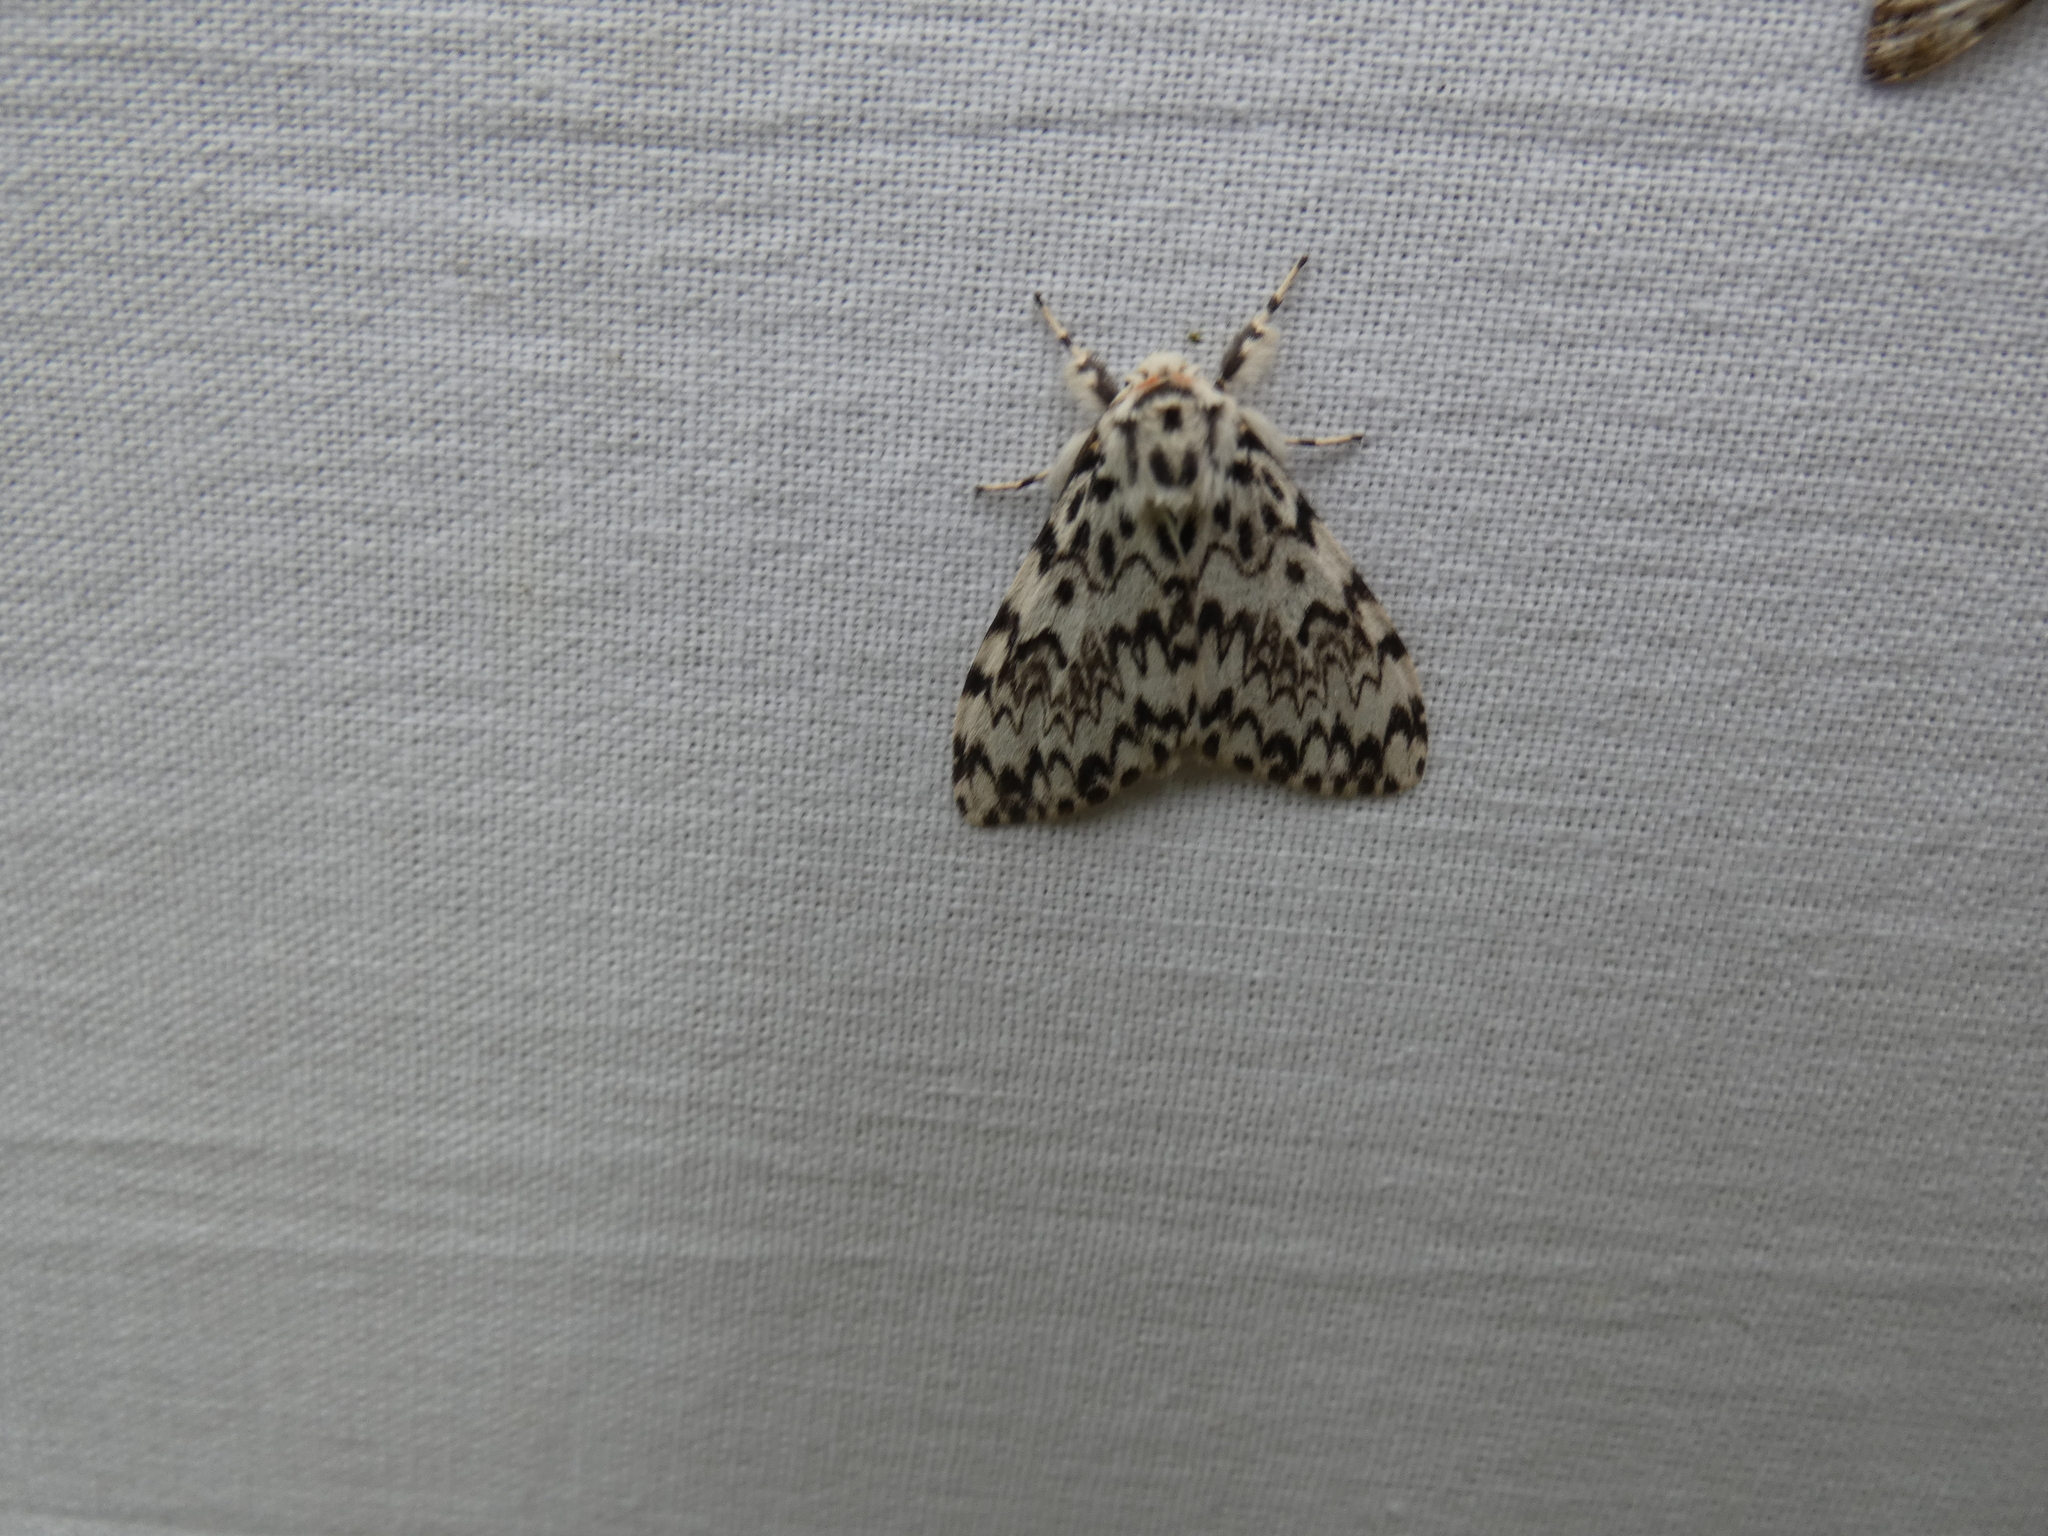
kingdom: Animalia
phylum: Arthropoda
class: Insecta
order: Lepidoptera
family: Erebidae
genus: Lymantria
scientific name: Lymantria monacha
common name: Black arches
